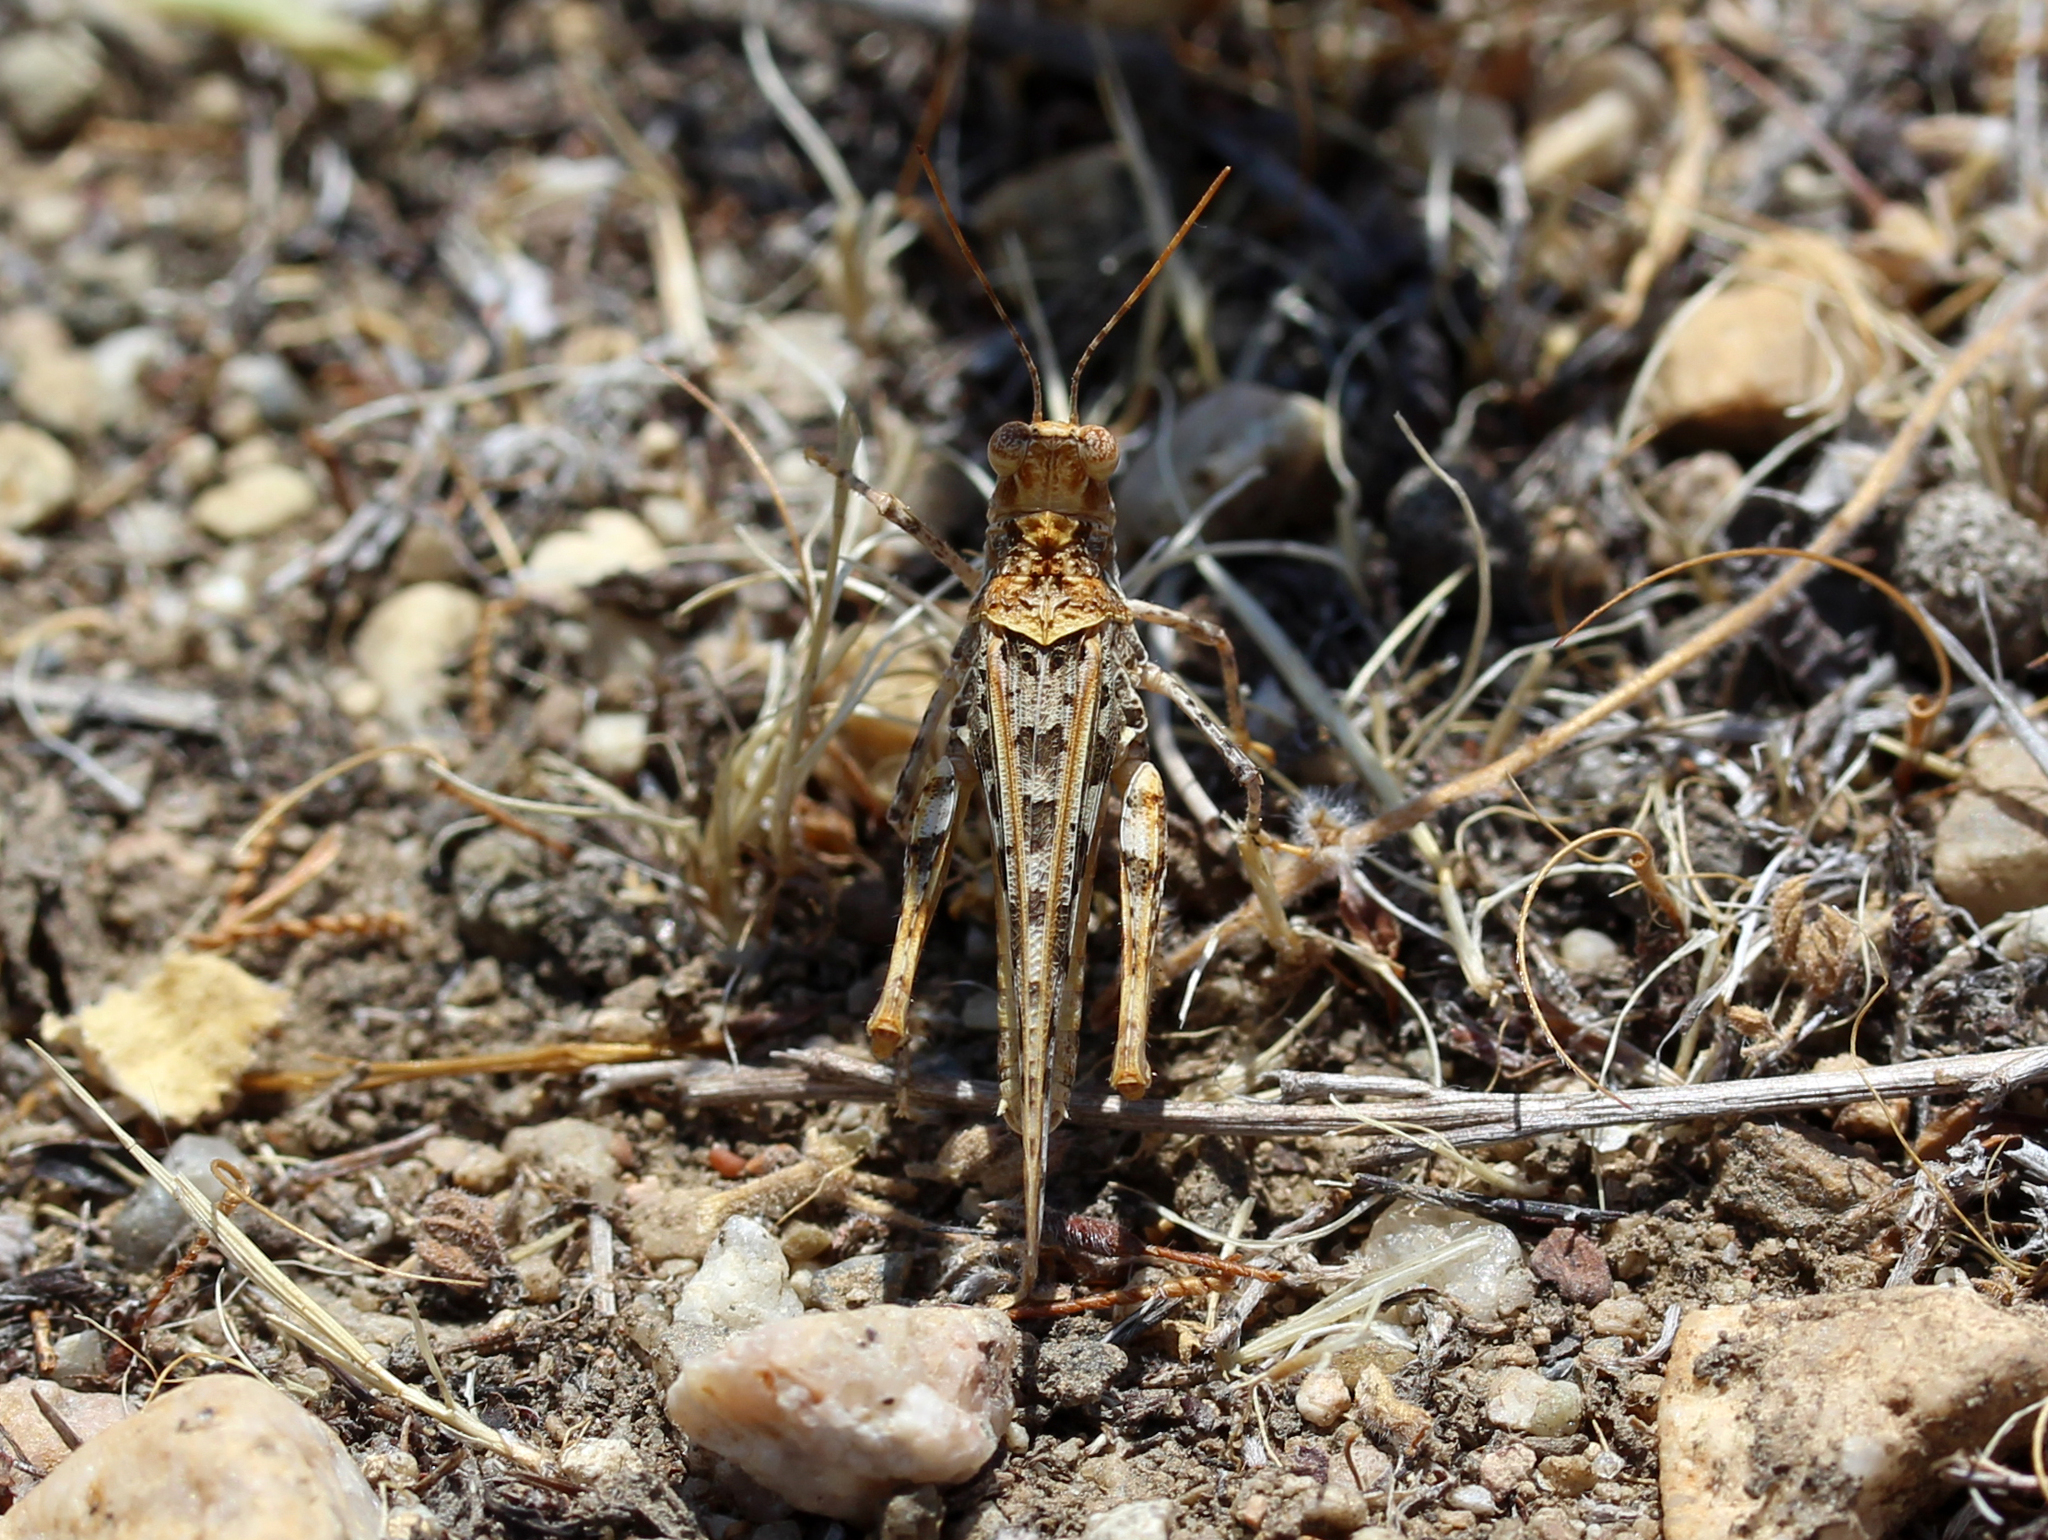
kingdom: Animalia
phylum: Arthropoda
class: Insecta
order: Orthoptera
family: Acrididae
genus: Derotmema
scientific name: Derotmema saussureanum
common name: Saussure's desert grasshopper
